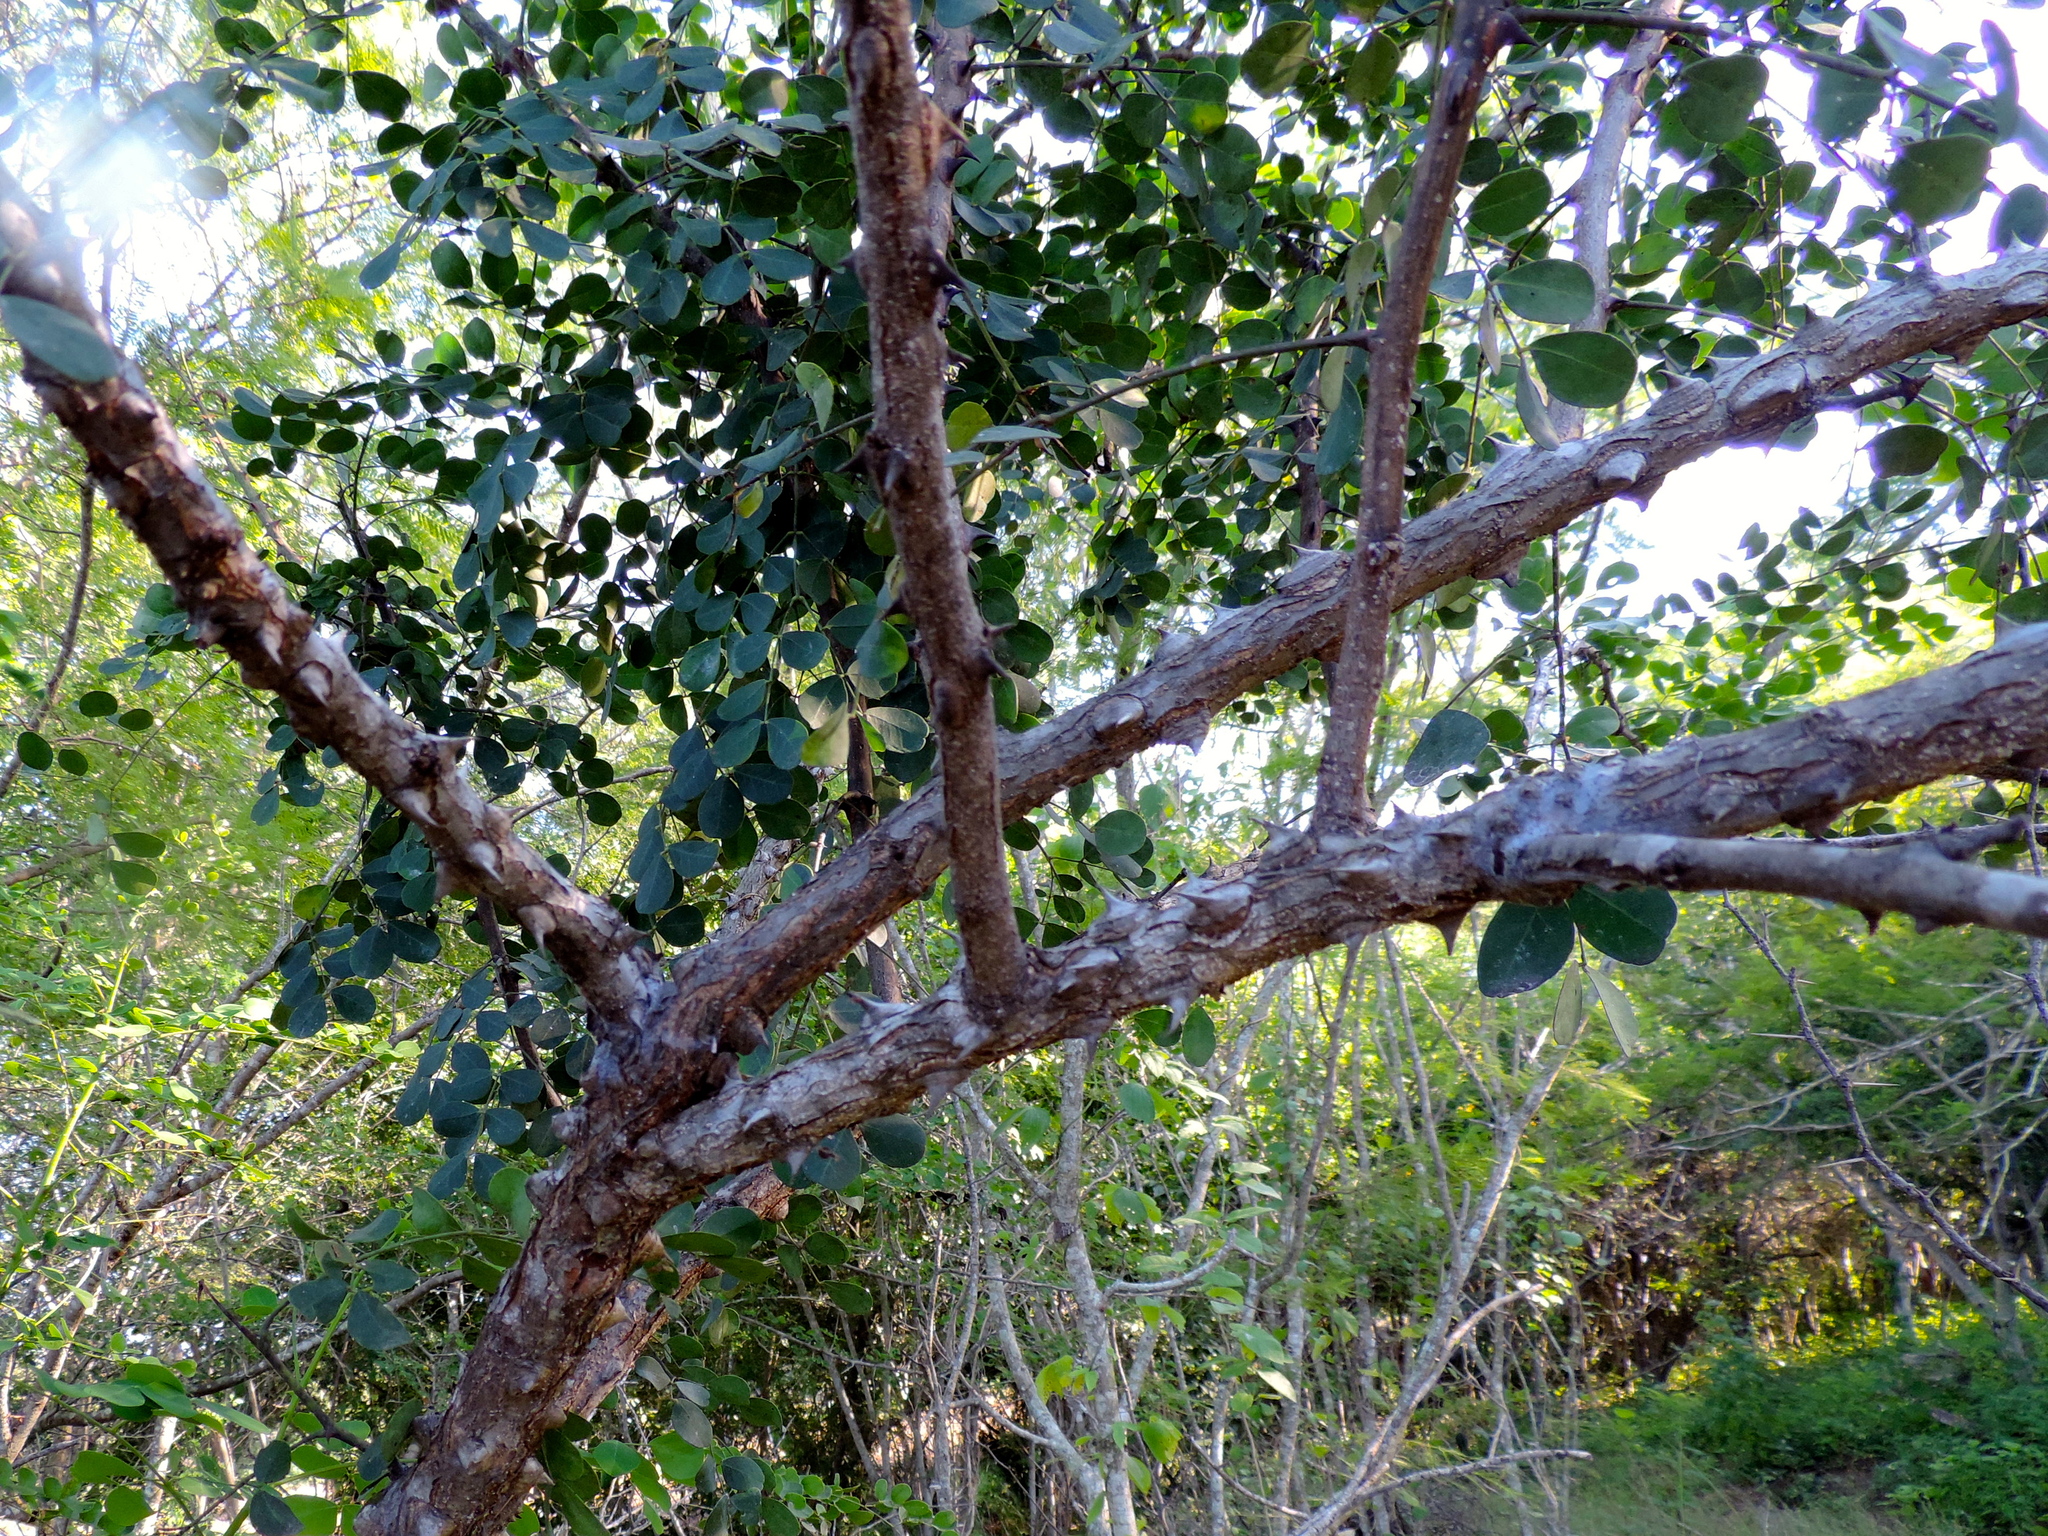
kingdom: Plantae
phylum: Tracheophyta
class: Magnoliopsida
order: Fabales
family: Fabaceae
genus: Tara
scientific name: Tara cacalaco
